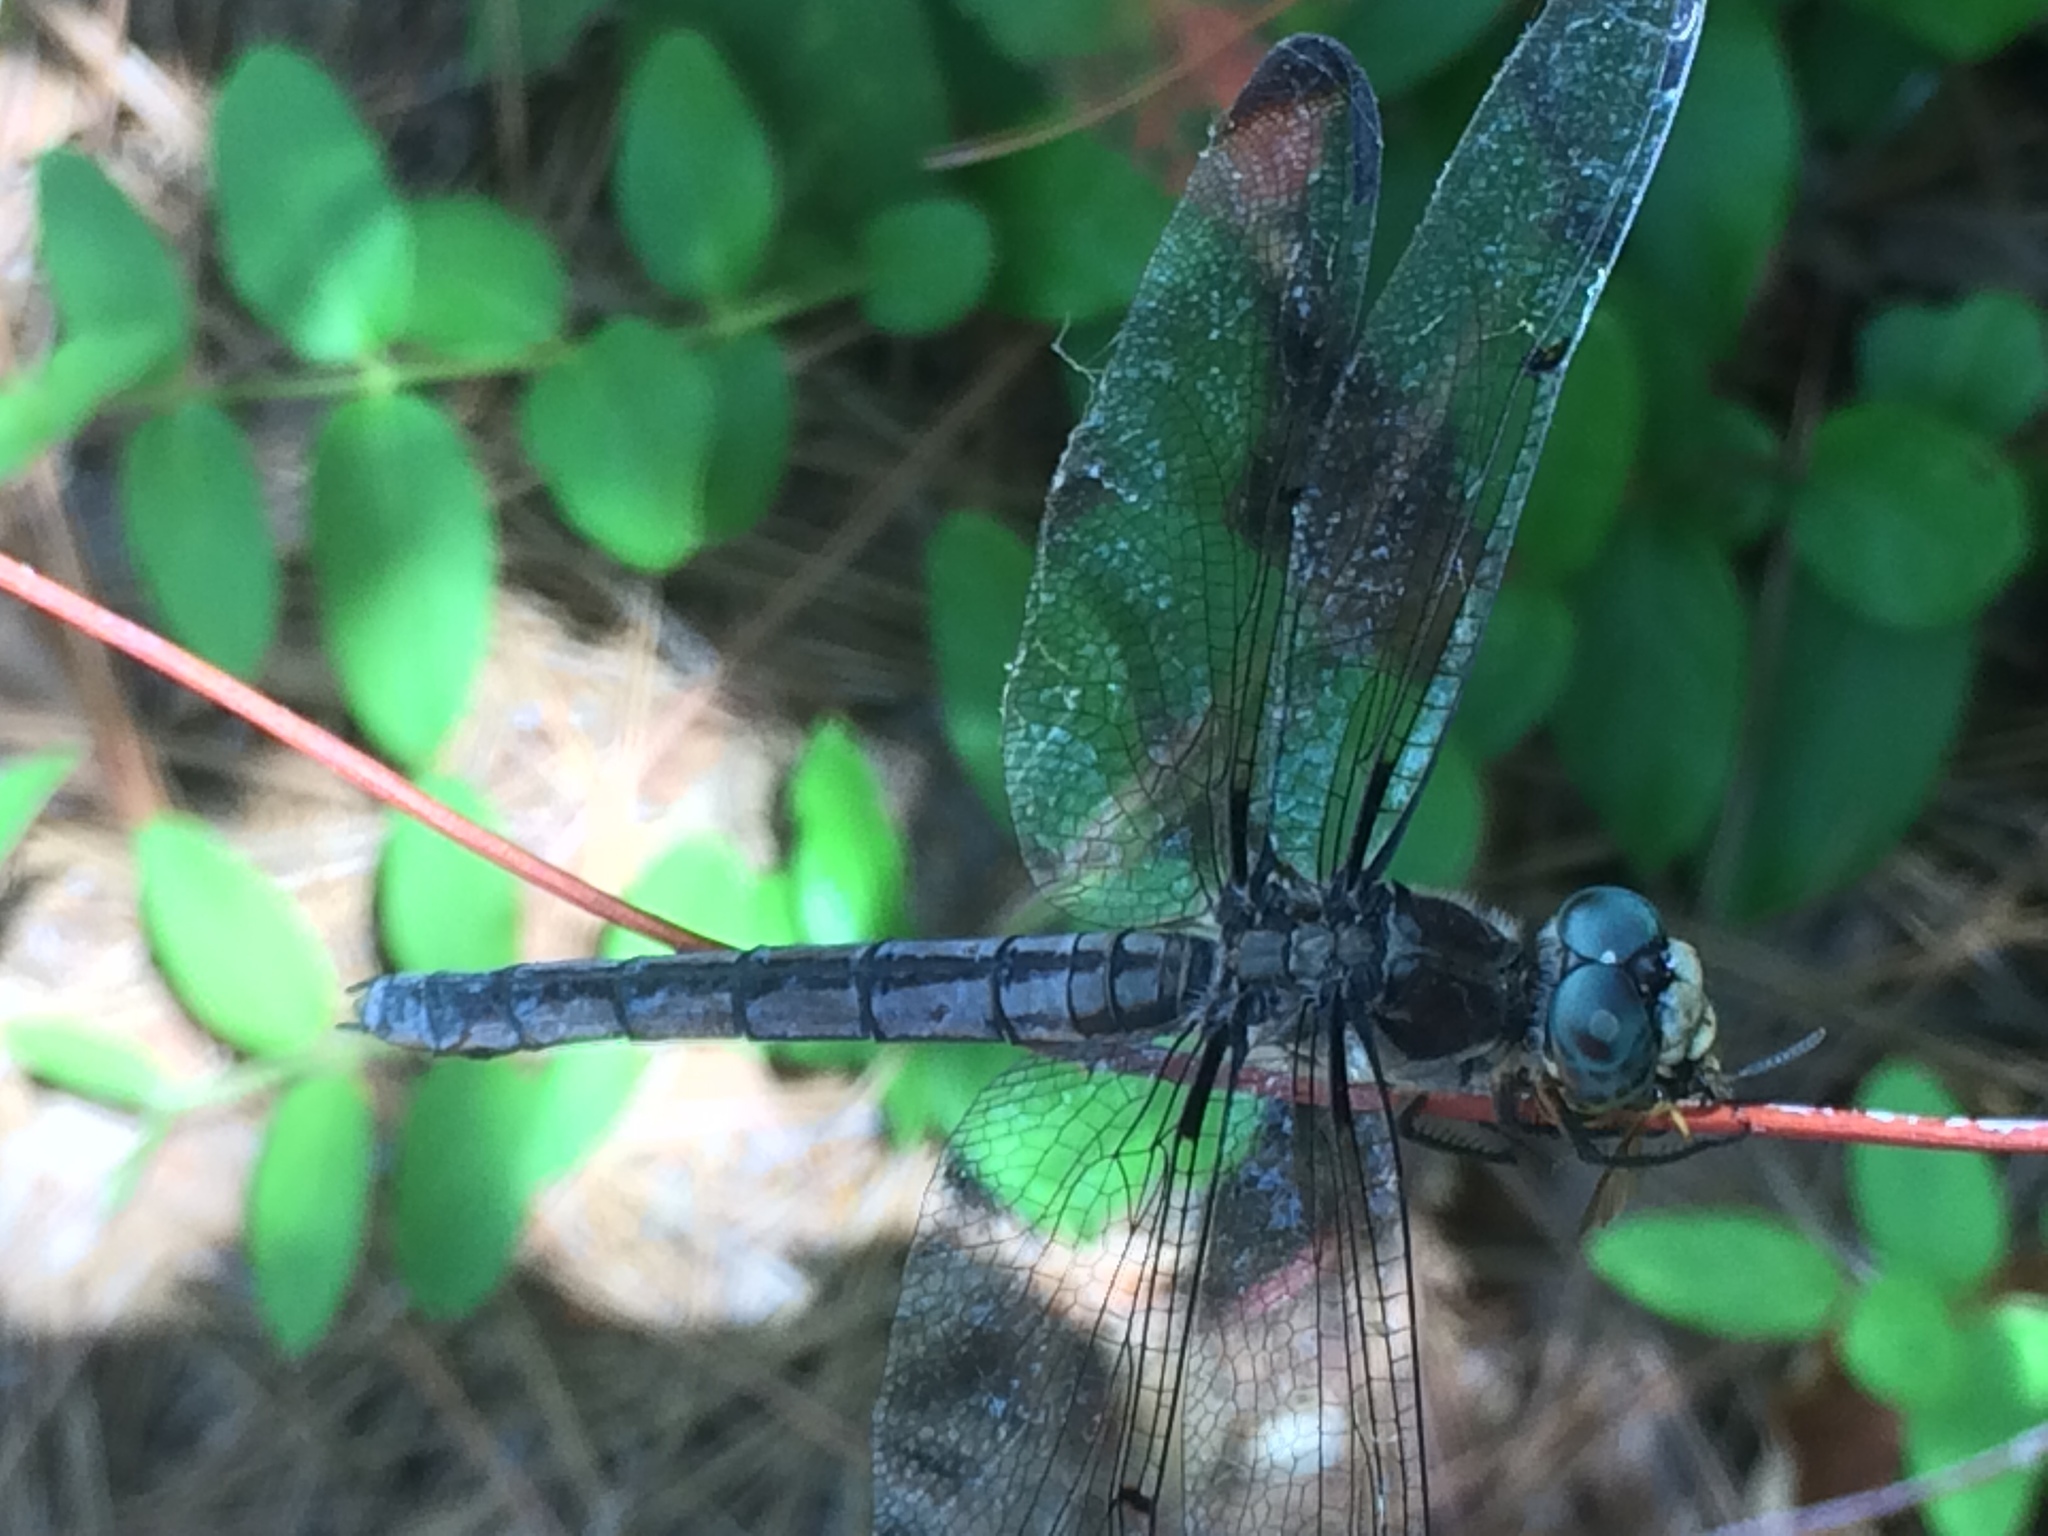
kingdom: Animalia
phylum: Arthropoda
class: Insecta
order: Odonata
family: Libellulidae
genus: Libellula
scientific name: Libellula vibrans
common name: Great blue skimmer
